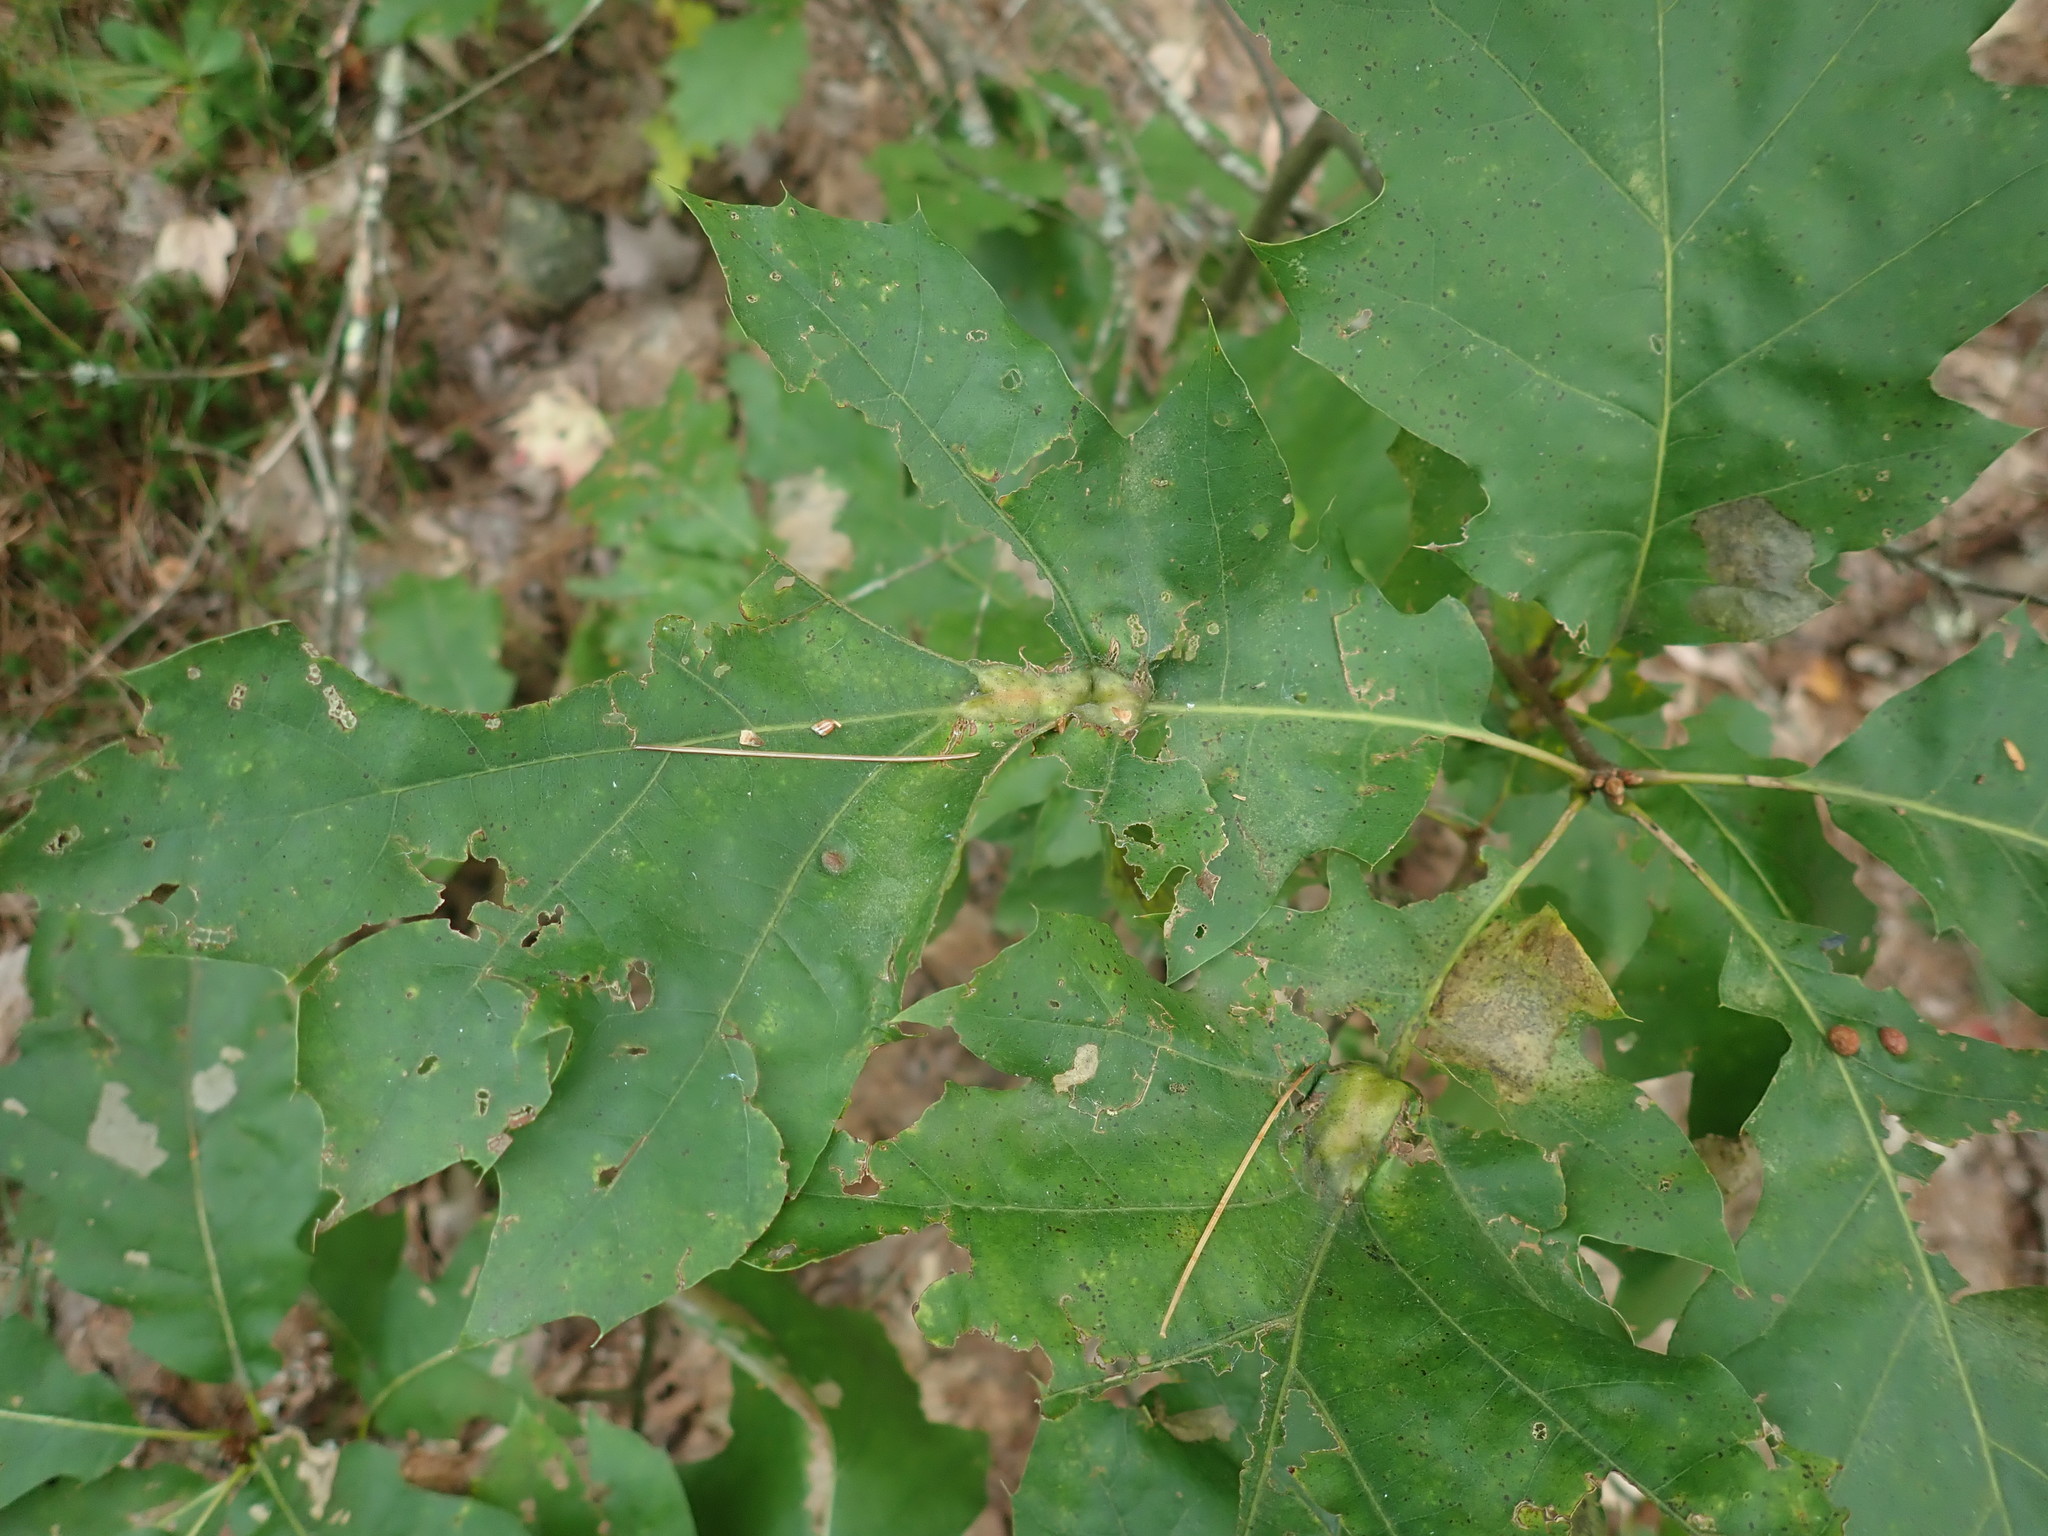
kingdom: Animalia
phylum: Arthropoda
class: Insecta
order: Hymenoptera
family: Cynipidae
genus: Melikaiella
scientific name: Melikaiella tumifica
